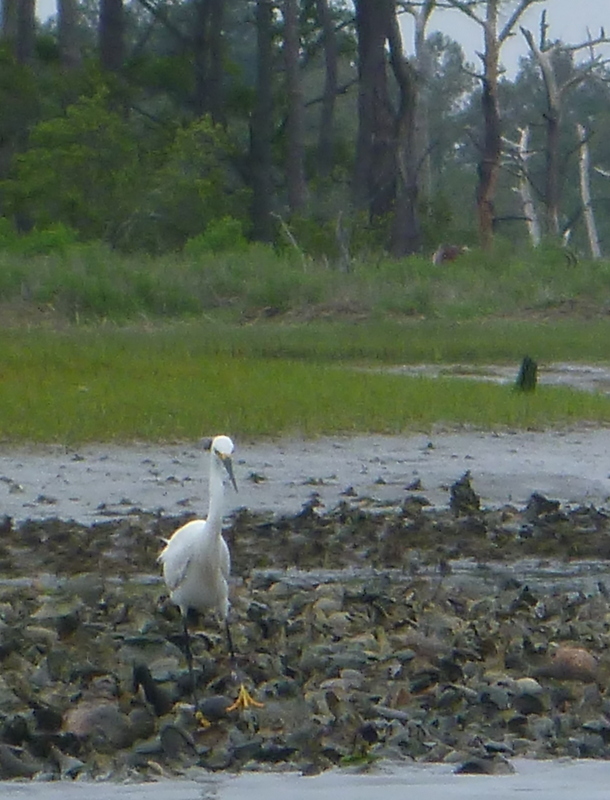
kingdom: Animalia
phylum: Chordata
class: Aves
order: Pelecaniformes
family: Ardeidae
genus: Egretta
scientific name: Egretta thula
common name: Snowy egret
